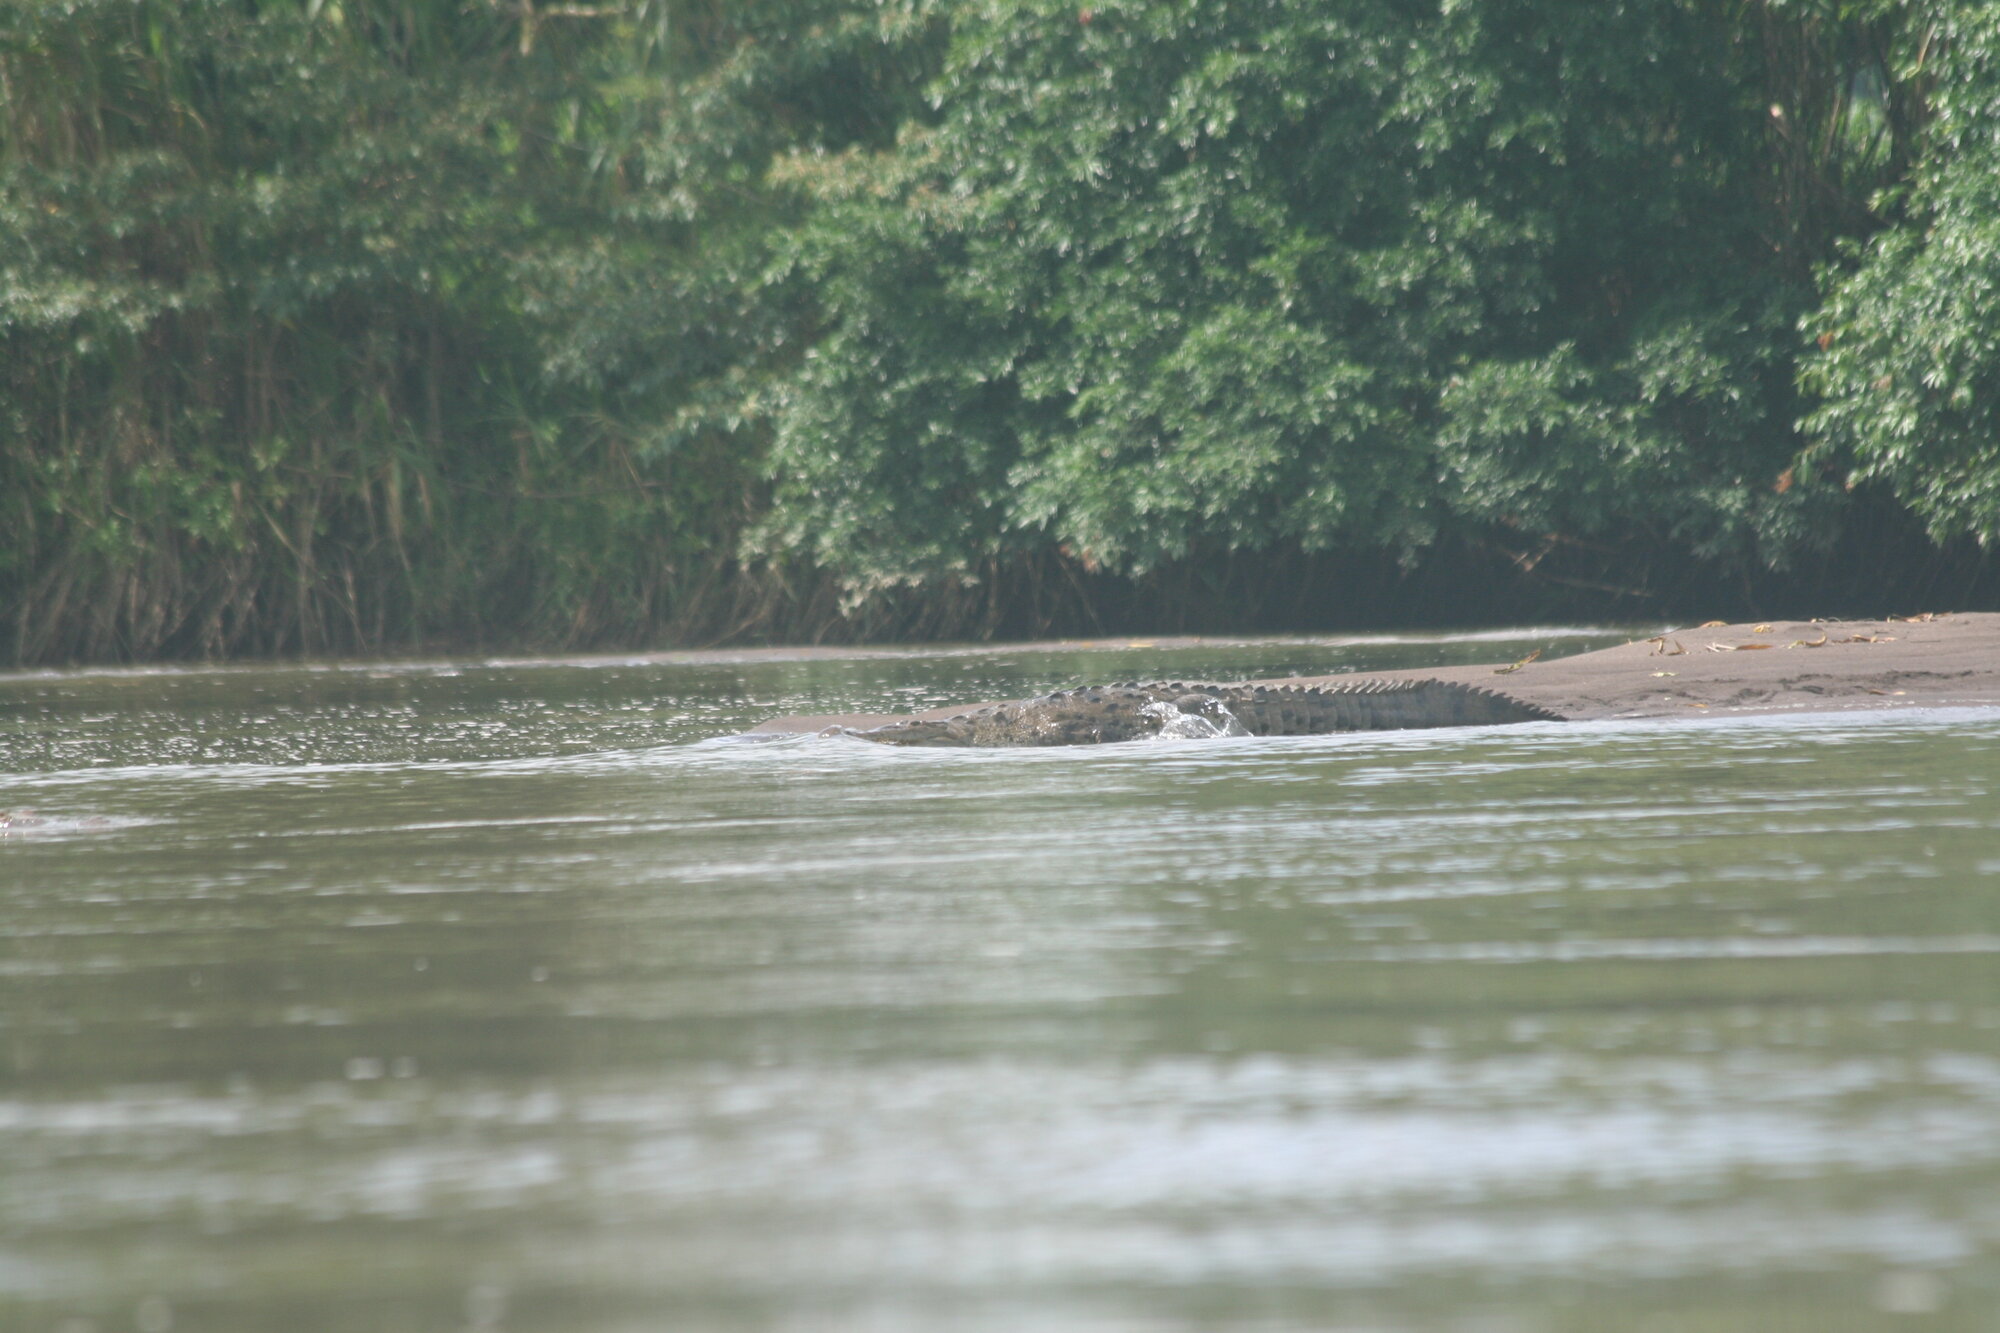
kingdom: Animalia
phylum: Chordata
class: Crocodylia
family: Crocodylidae
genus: Crocodylus
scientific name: Crocodylus acutus
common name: American crocodile
